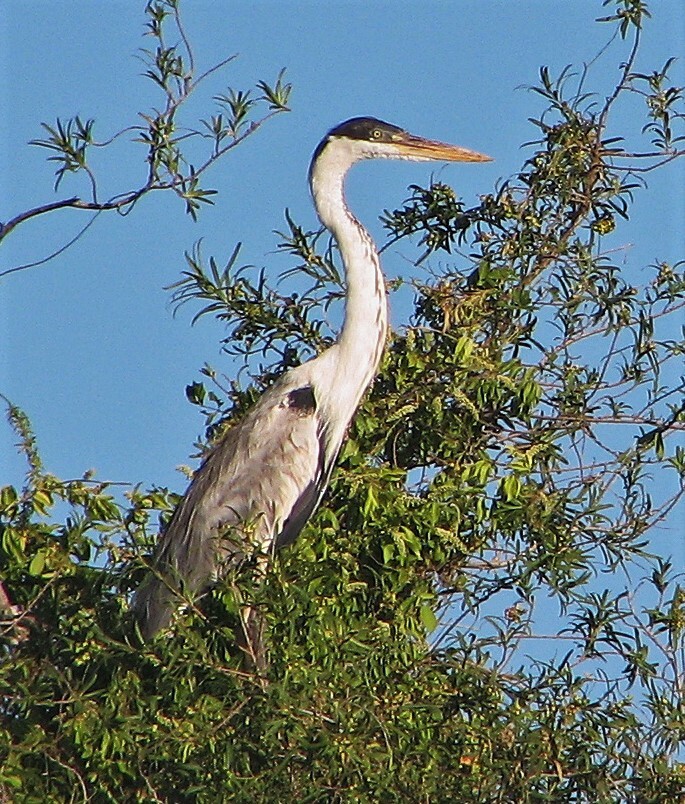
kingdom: Animalia
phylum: Chordata
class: Aves
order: Pelecaniformes
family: Ardeidae
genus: Ardea
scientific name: Ardea cocoi
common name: Cocoi heron
